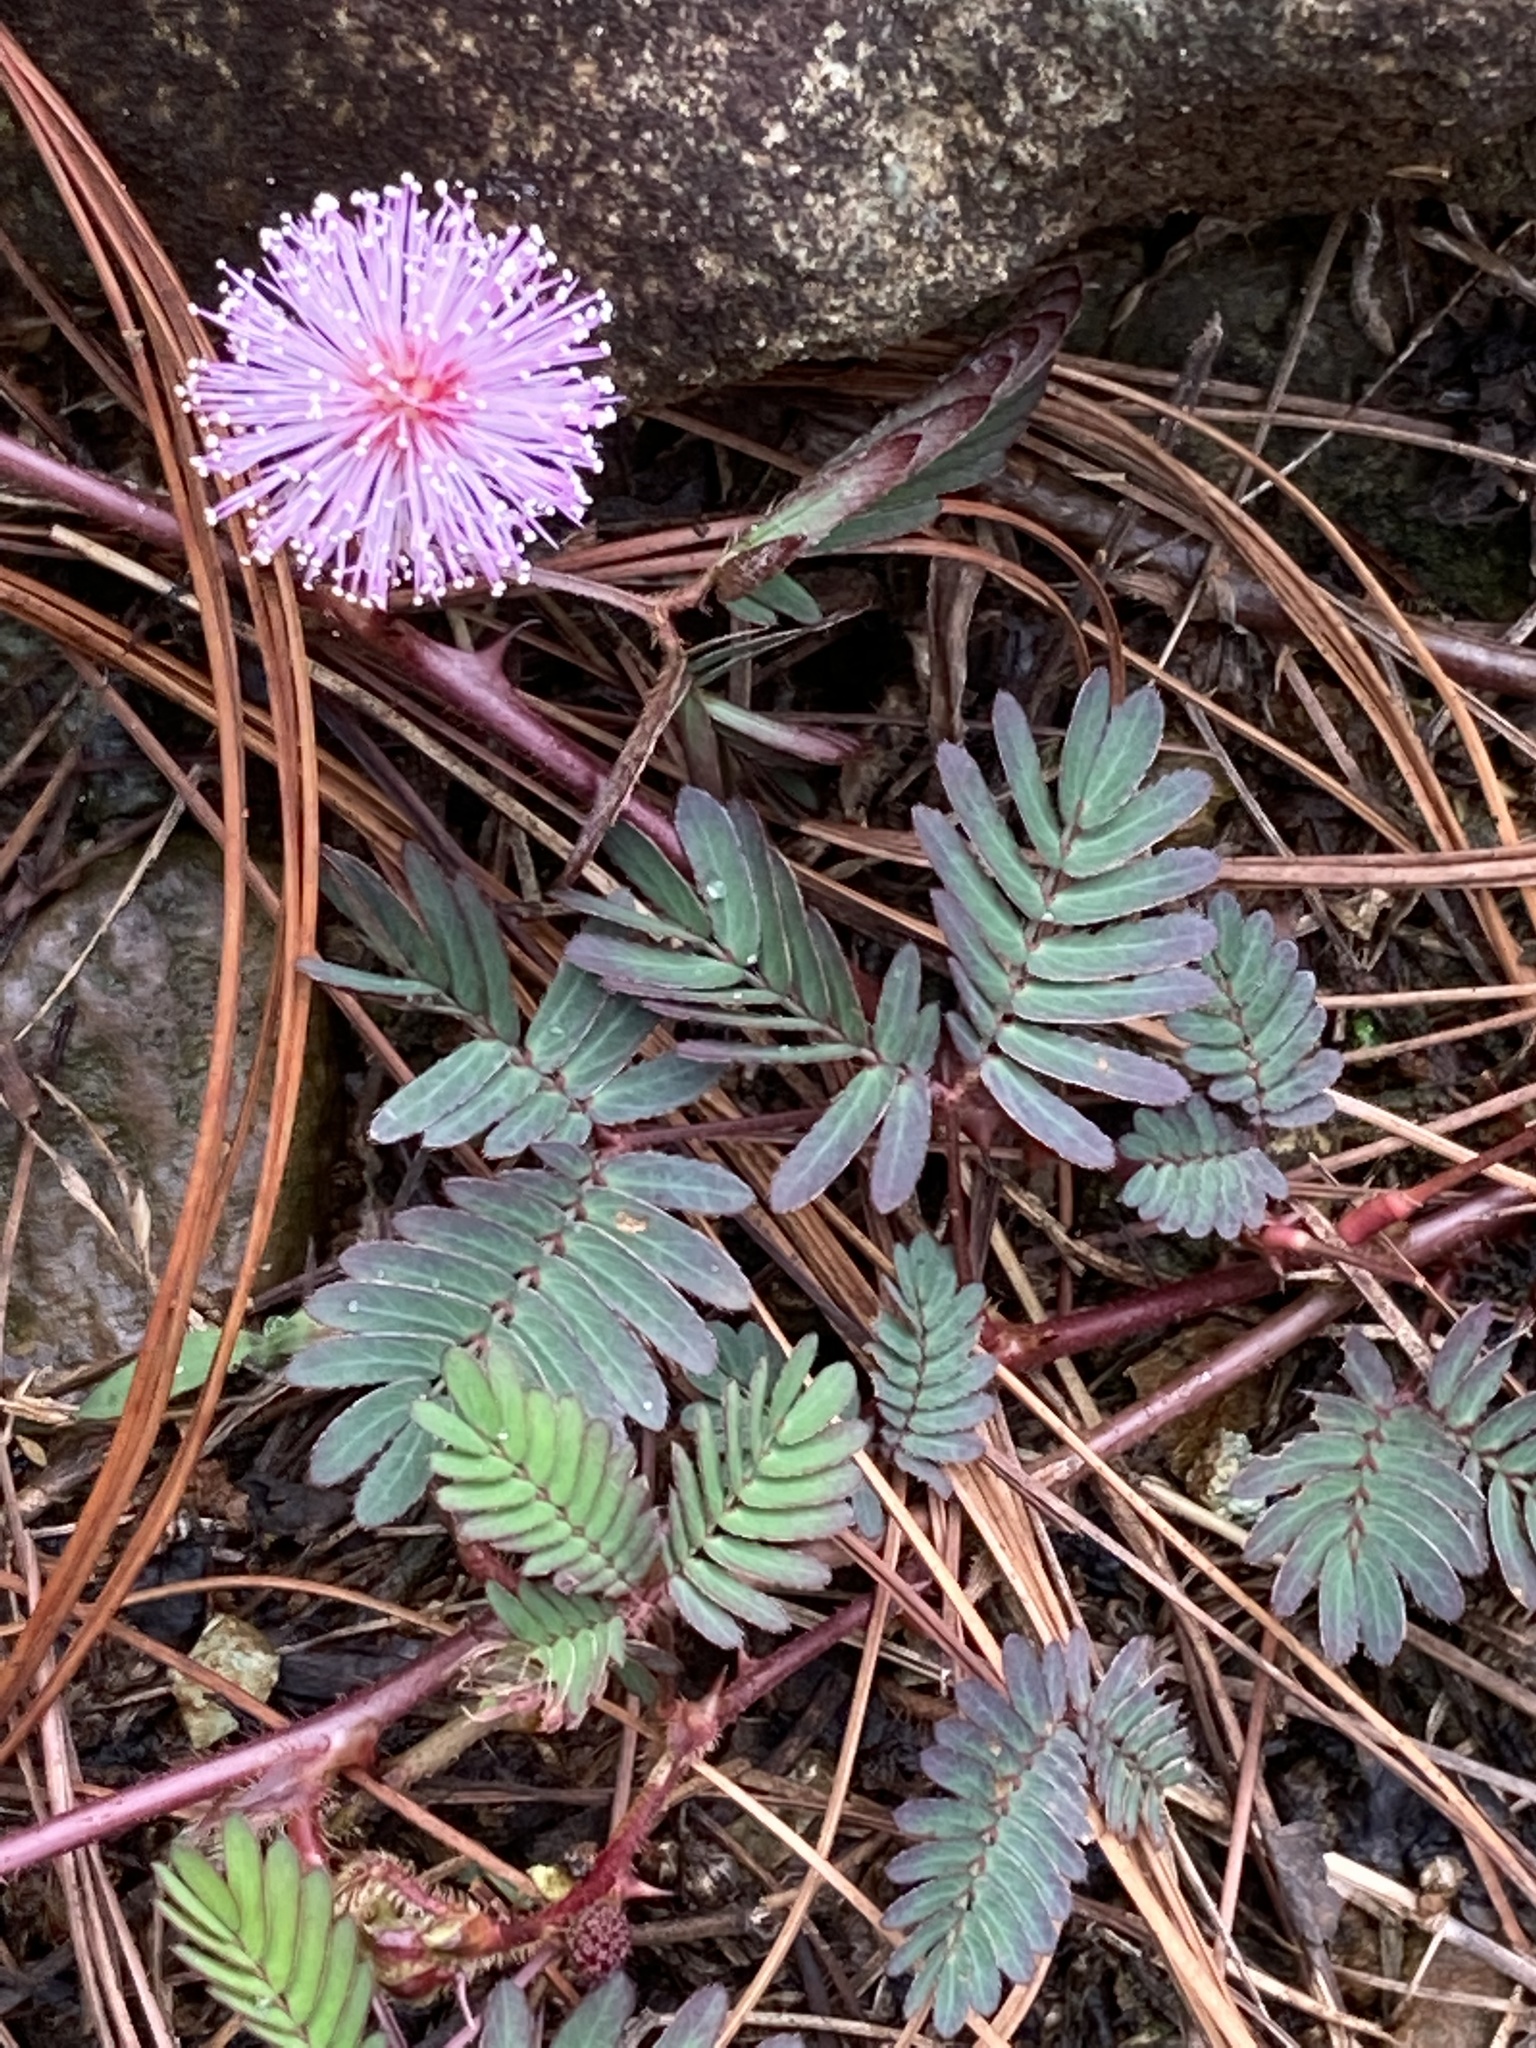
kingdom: Plantae
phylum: Tracheophyta
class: Magnoliopsida
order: Fabales
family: Fabaceae
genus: Mimosa
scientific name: Mimosa pudica
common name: Sensitive plant
